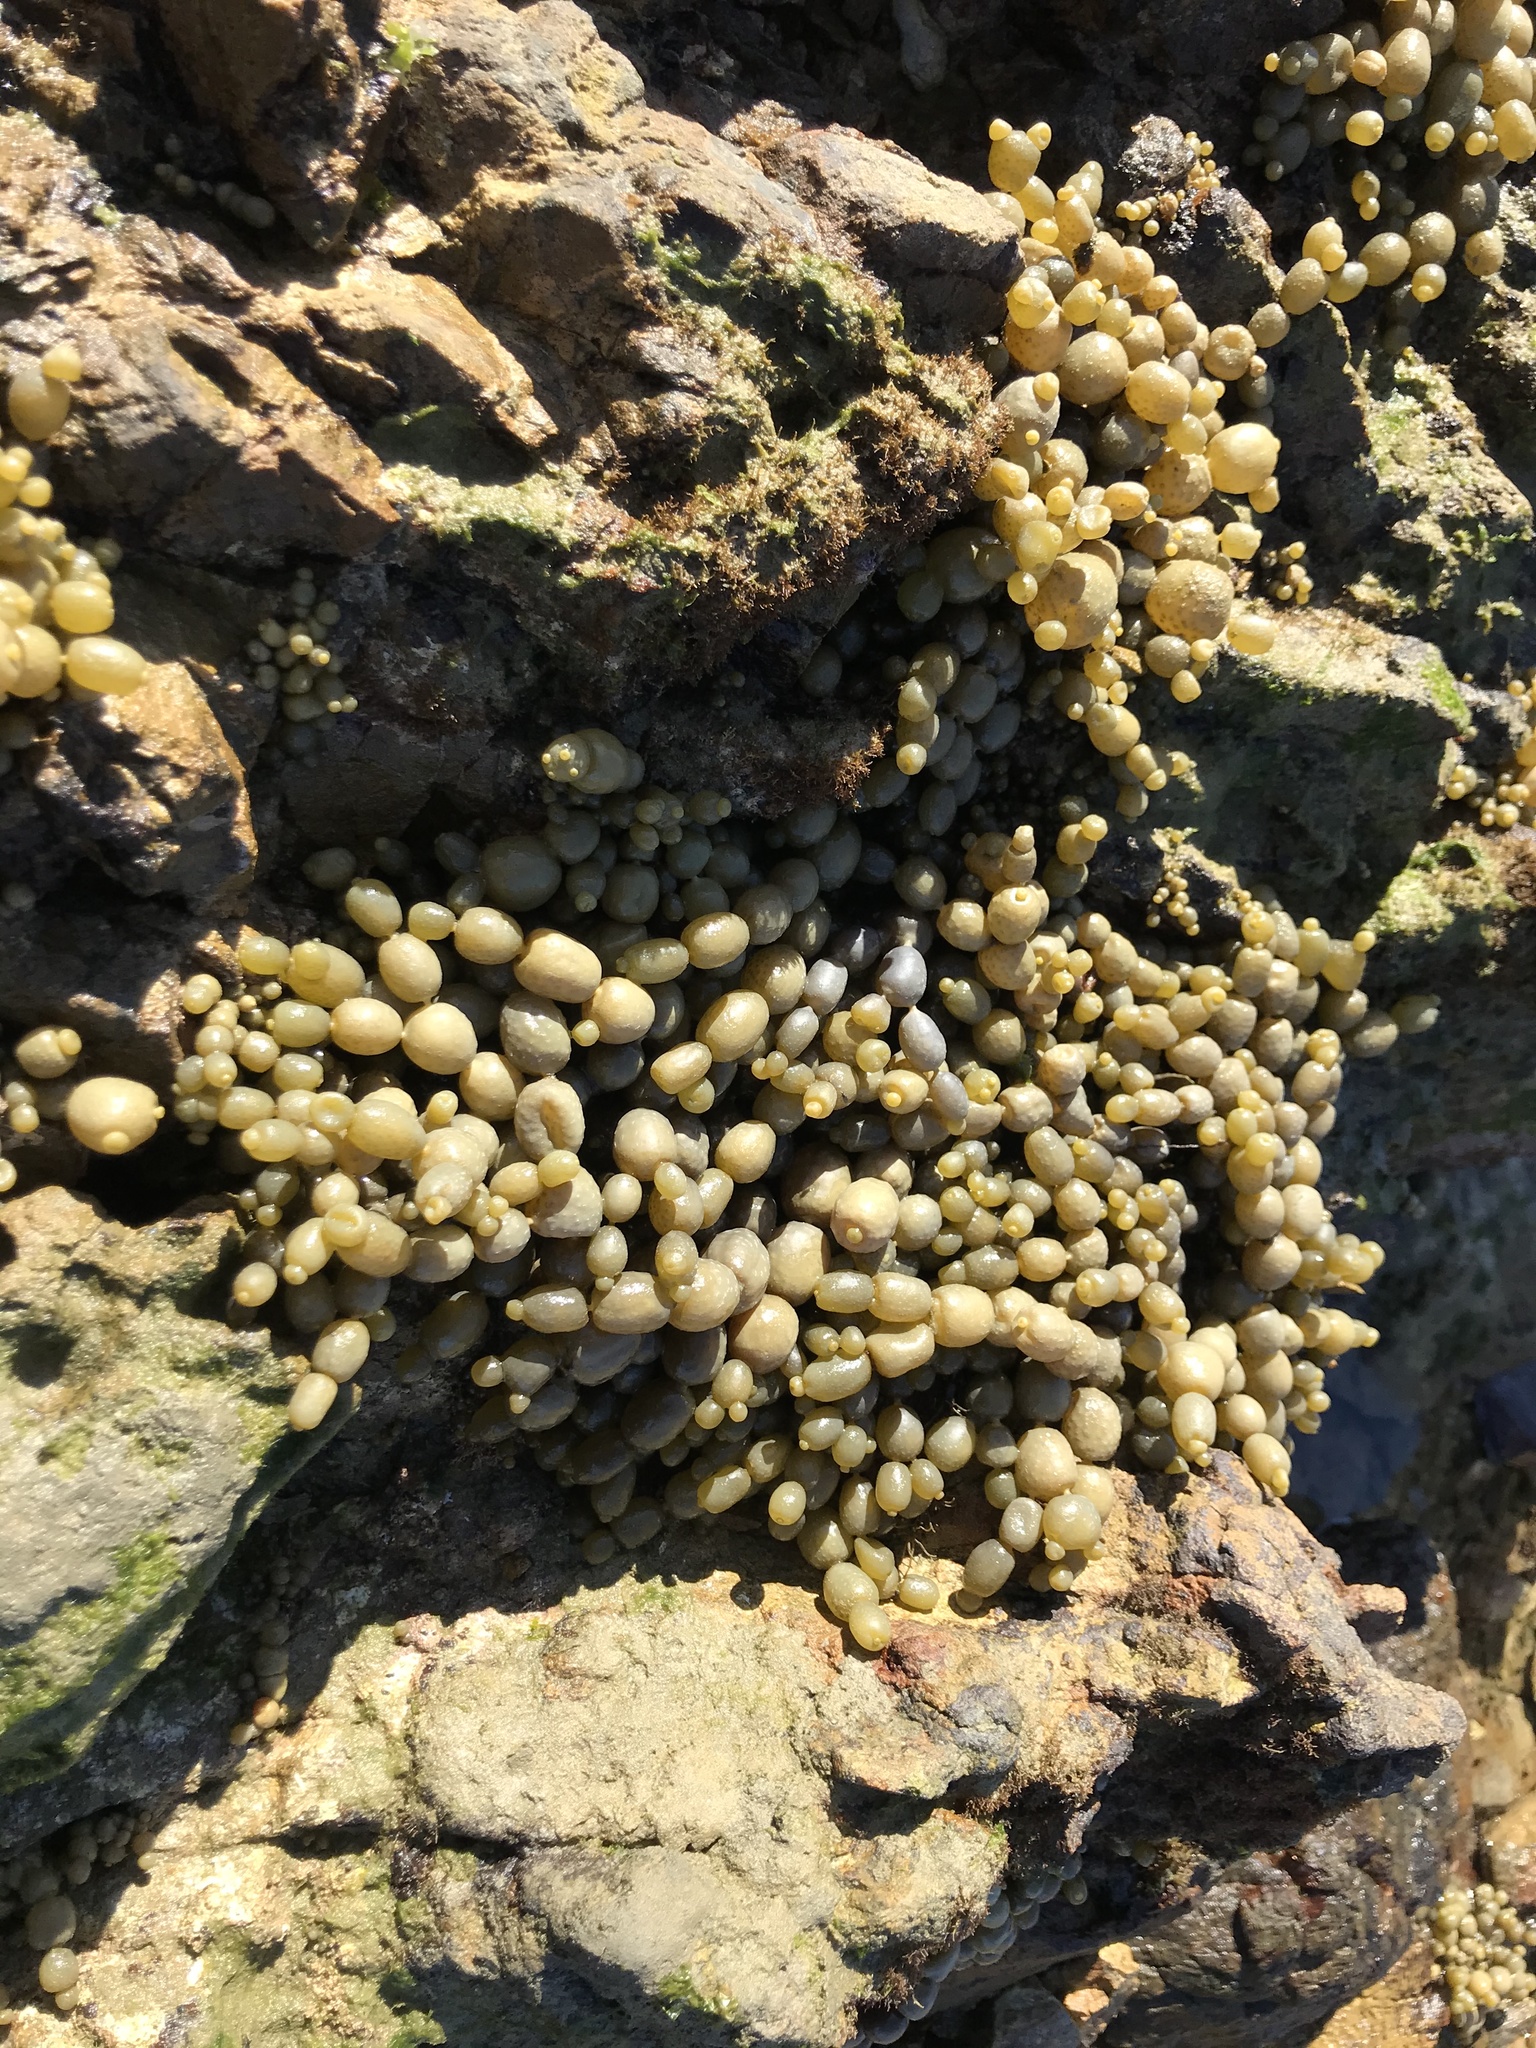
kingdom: Chromista
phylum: Ochrophyta
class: Phaeophyceae
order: Fucales
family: Hormosiraceae
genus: Hormosira
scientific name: Hormosira banksii
